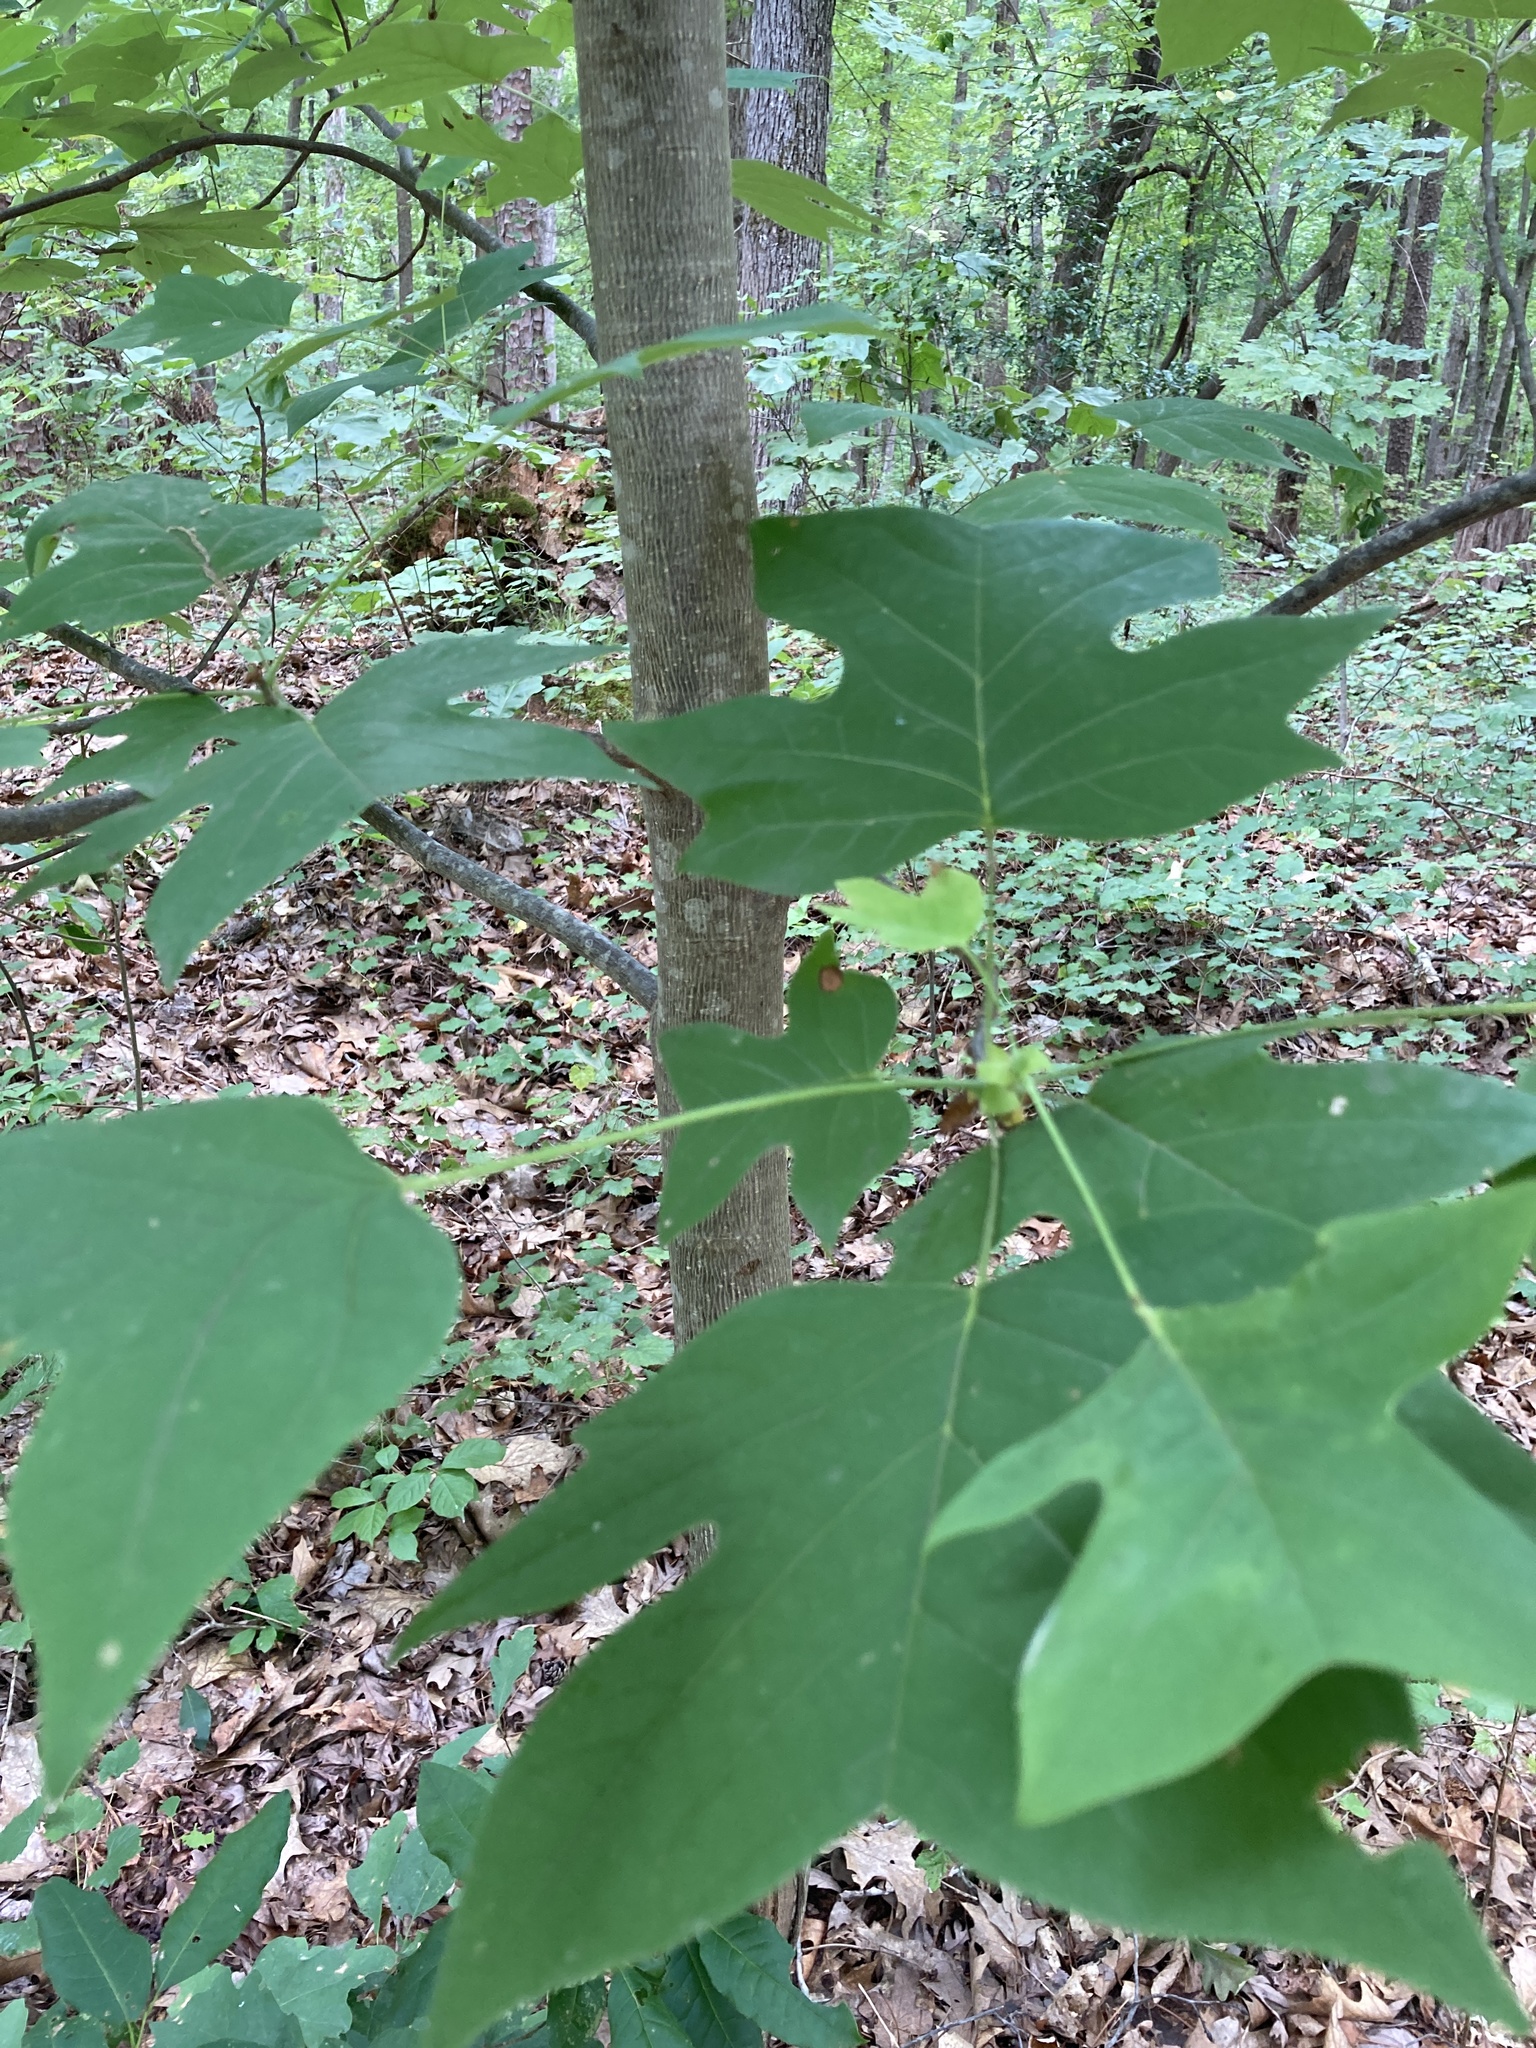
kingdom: Plantae
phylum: Tracheophyta
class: Magnoliopsida
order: Magnoliales
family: Magnoliaceae
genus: Liriodendron
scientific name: Liriodendron tulipifera
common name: Tulip tree
